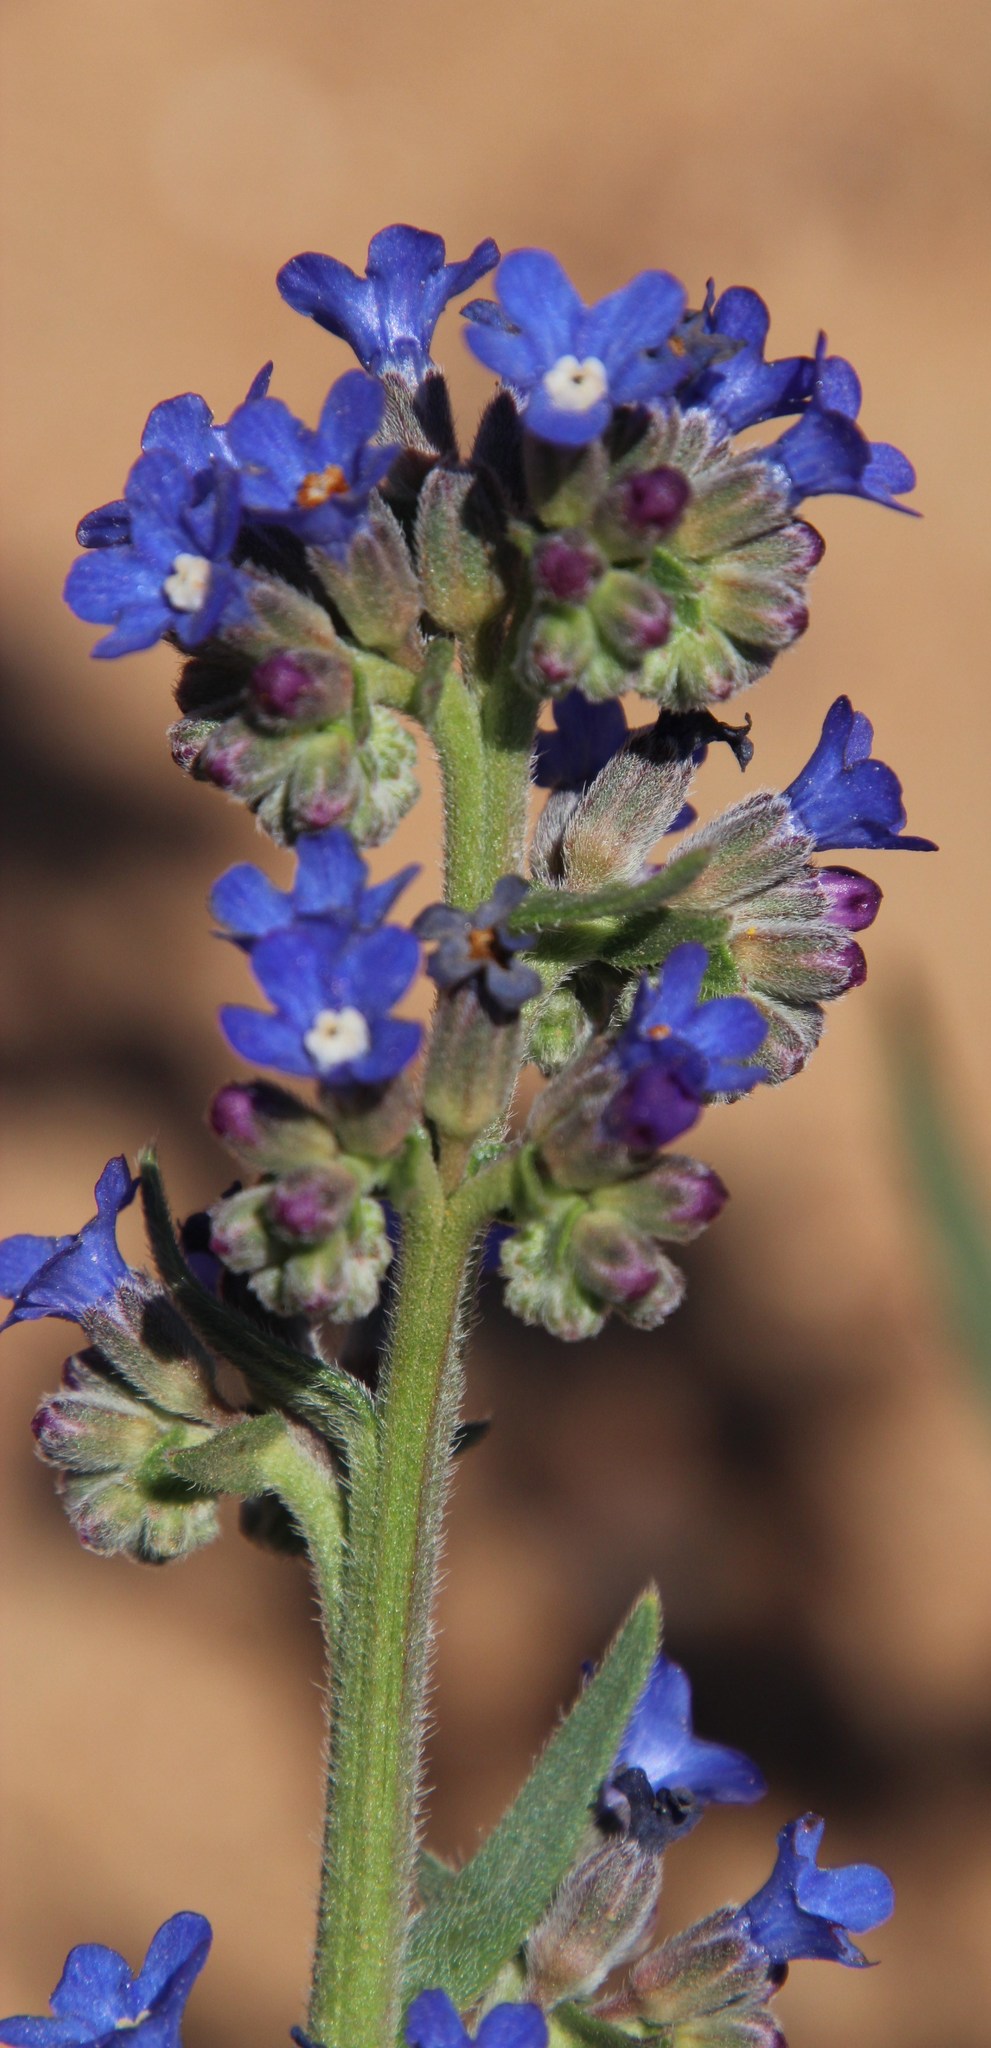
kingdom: Plantae
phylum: Tracheophyta
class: Magnoliopsida
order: Boraginales
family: Boraginaceae
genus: Anchusa
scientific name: Anchusa capensis
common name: Cape bugloss
